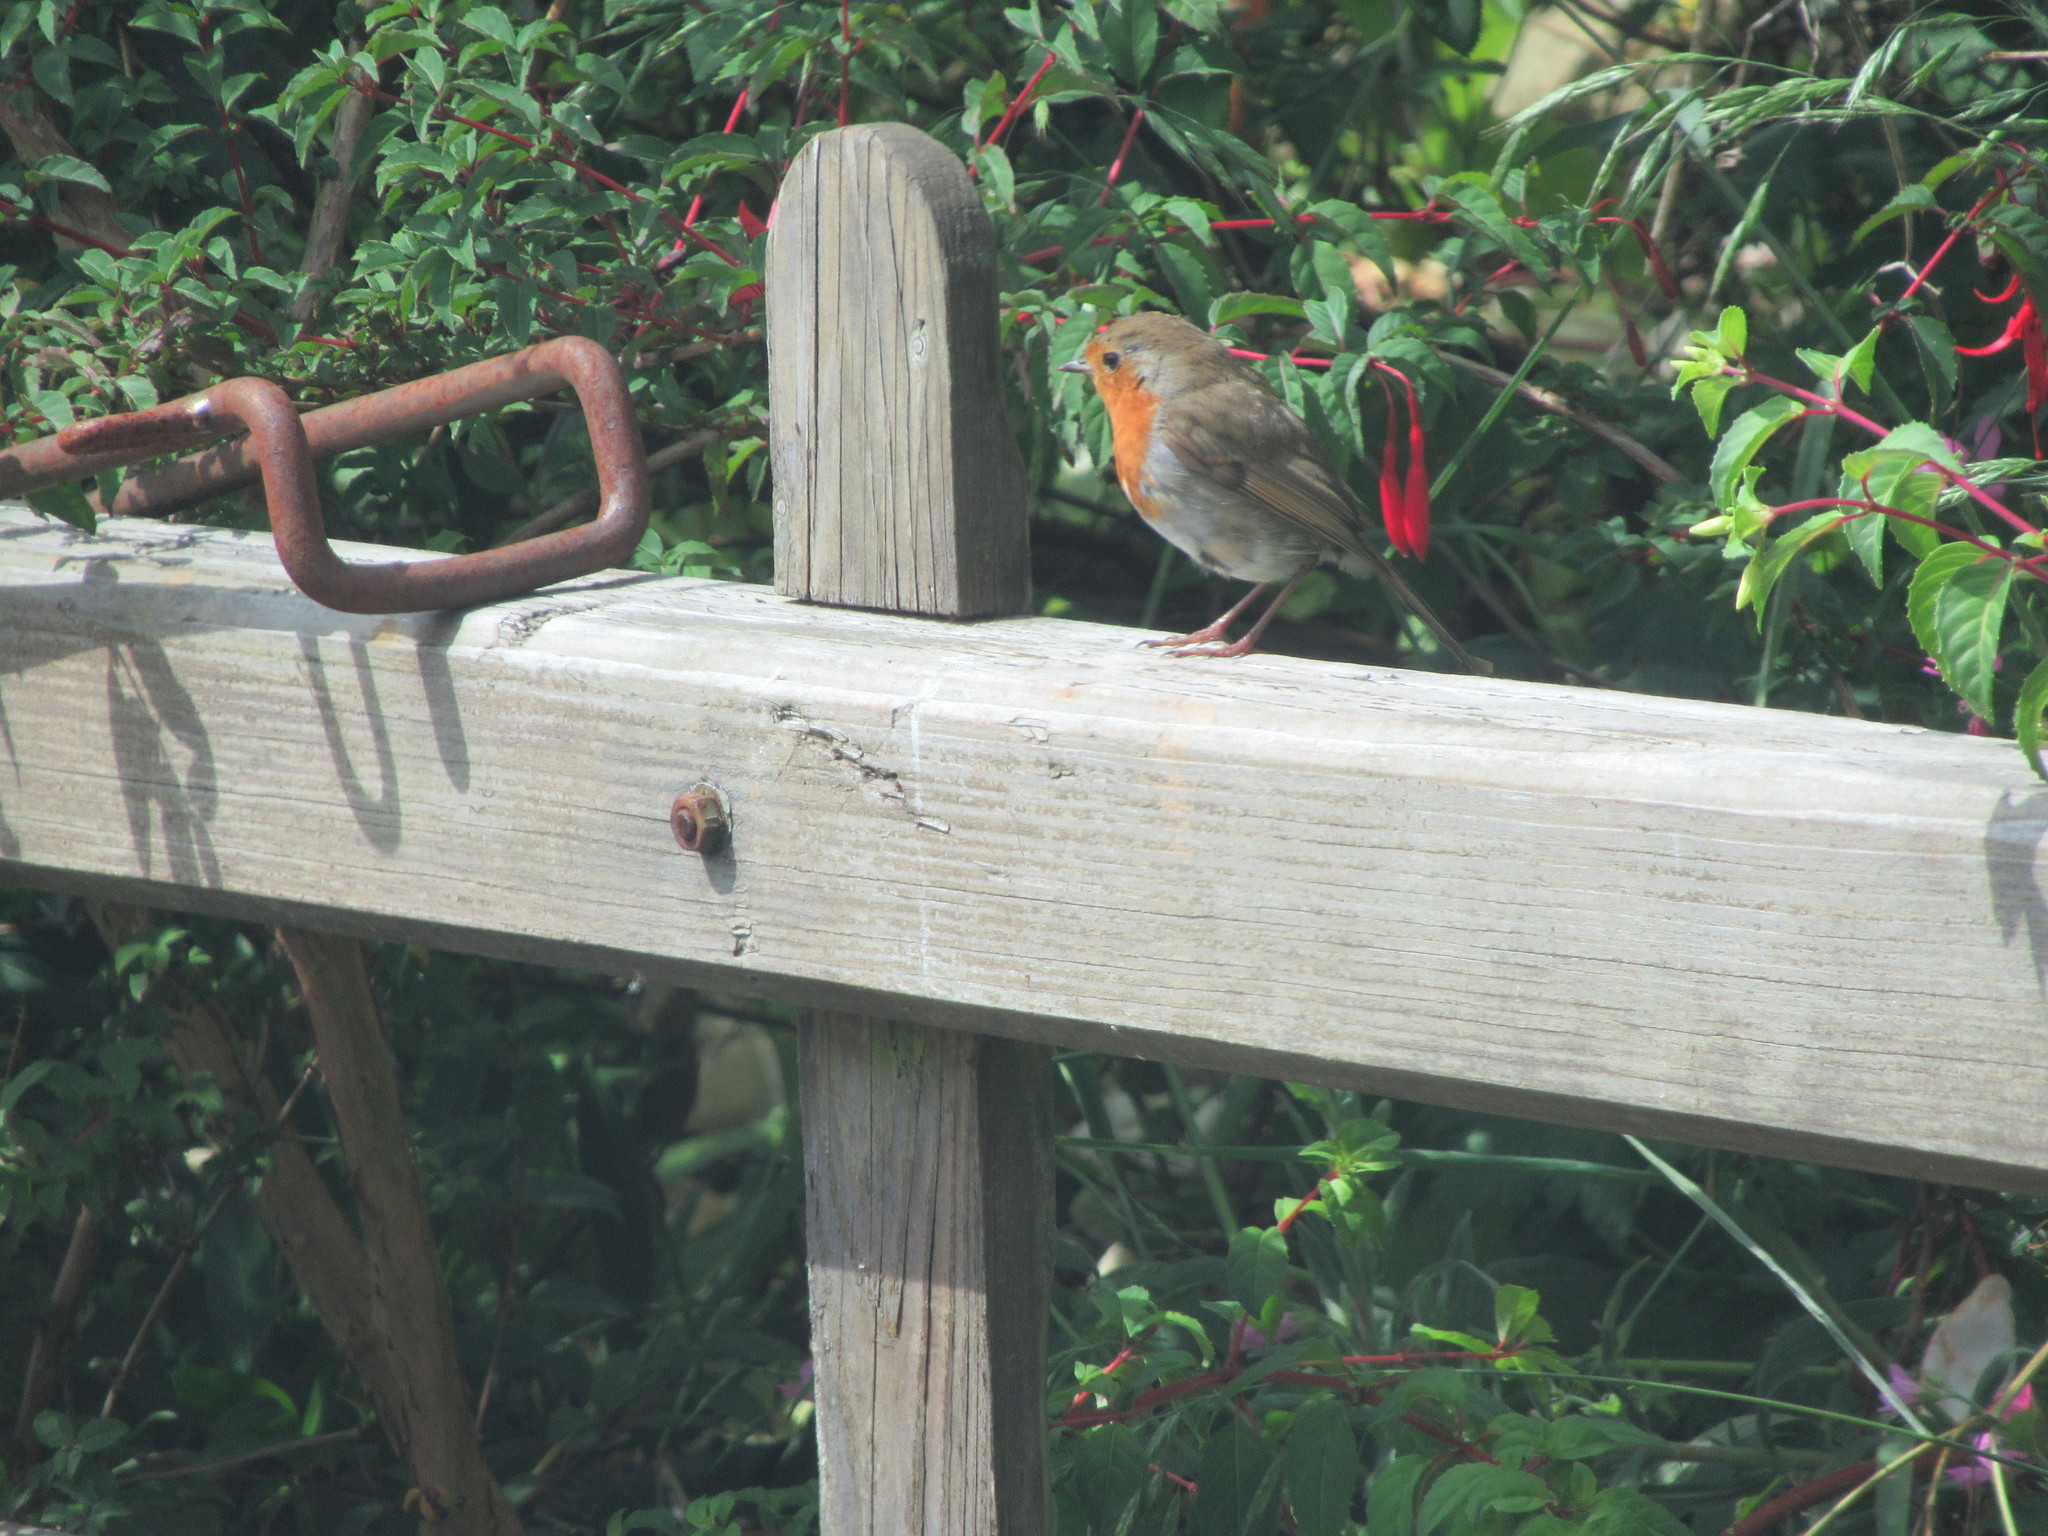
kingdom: Animalia
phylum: Chordata
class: Aves
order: Passeriformes
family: Muscicapidae
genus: Erithacus
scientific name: Erithacus rubecula
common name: European robin
